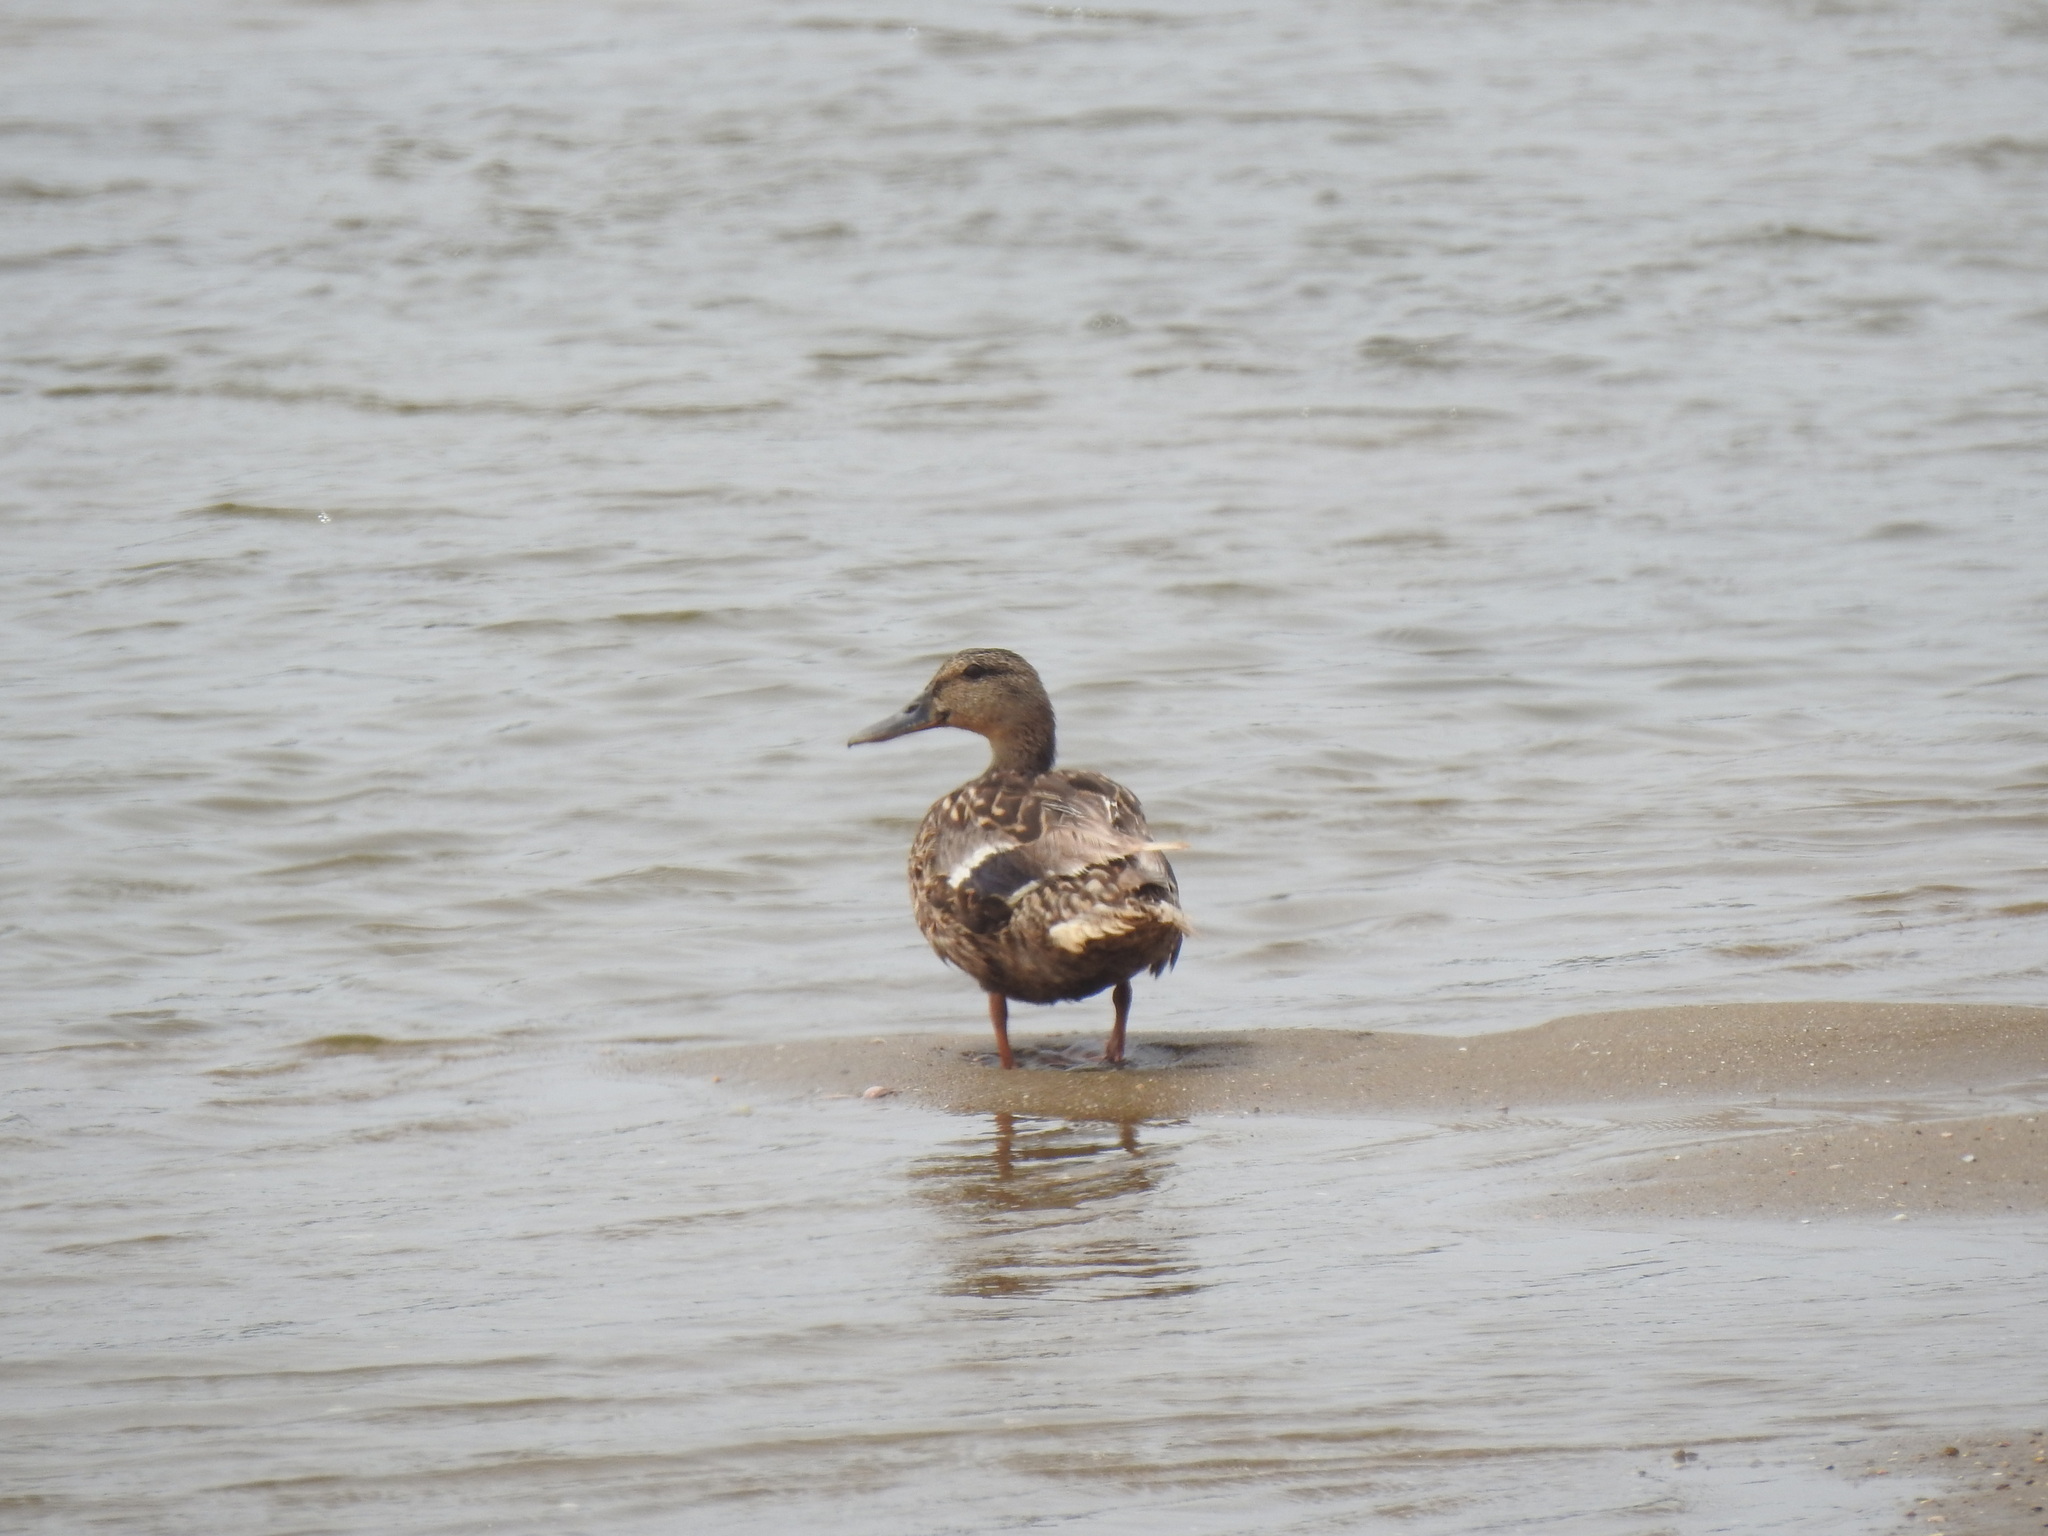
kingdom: Animalia
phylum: Chordata
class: Aves
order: Anseriformes
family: Anatidae
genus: Anas
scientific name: Anas platyrhynchos
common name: Mallard
